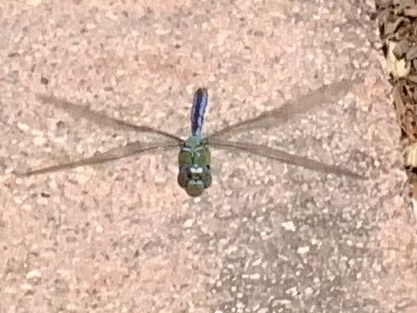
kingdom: Animalia
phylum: Arthropoda
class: Insecta
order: Odonata
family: Aeshnidae
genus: Anax
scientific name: Anax imperator
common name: Emperor dragonfly
